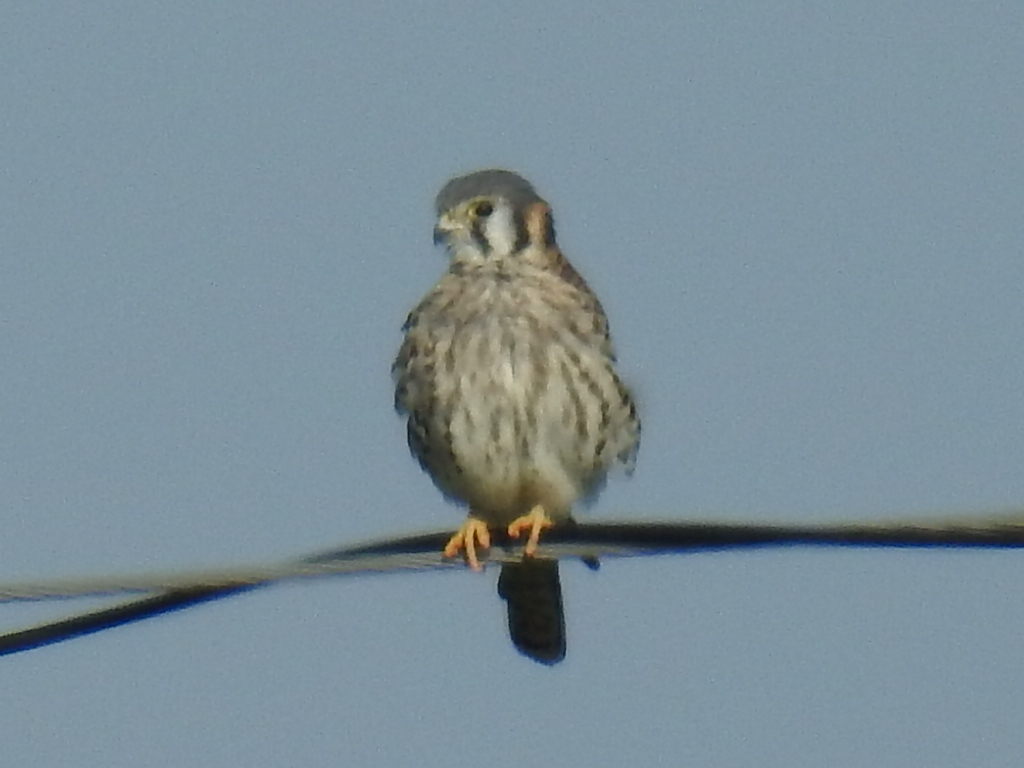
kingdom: Animalia
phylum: Chordata
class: Aves
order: Falconiformes
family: Falconidae
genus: Falco
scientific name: Falco sparverius
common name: American kestrel
